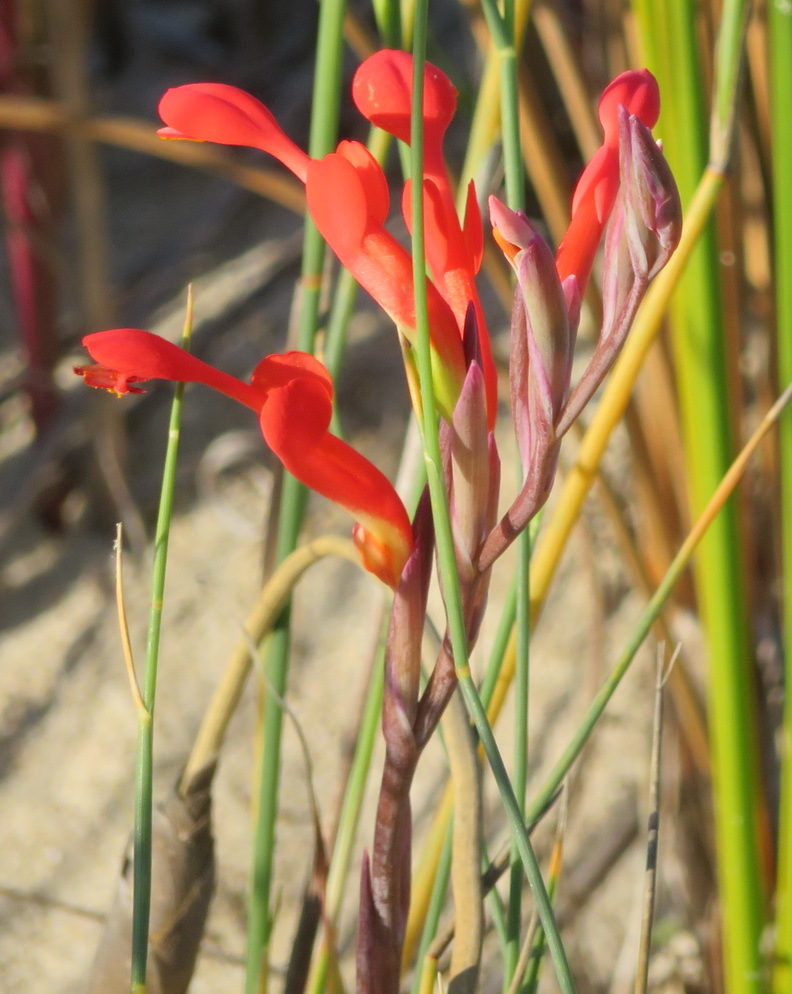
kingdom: Plantae
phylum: Tracheophyta
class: Liliopsida
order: Asparagales
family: Iridaceae
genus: Gladiolus
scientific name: Gladiolus cunonius
